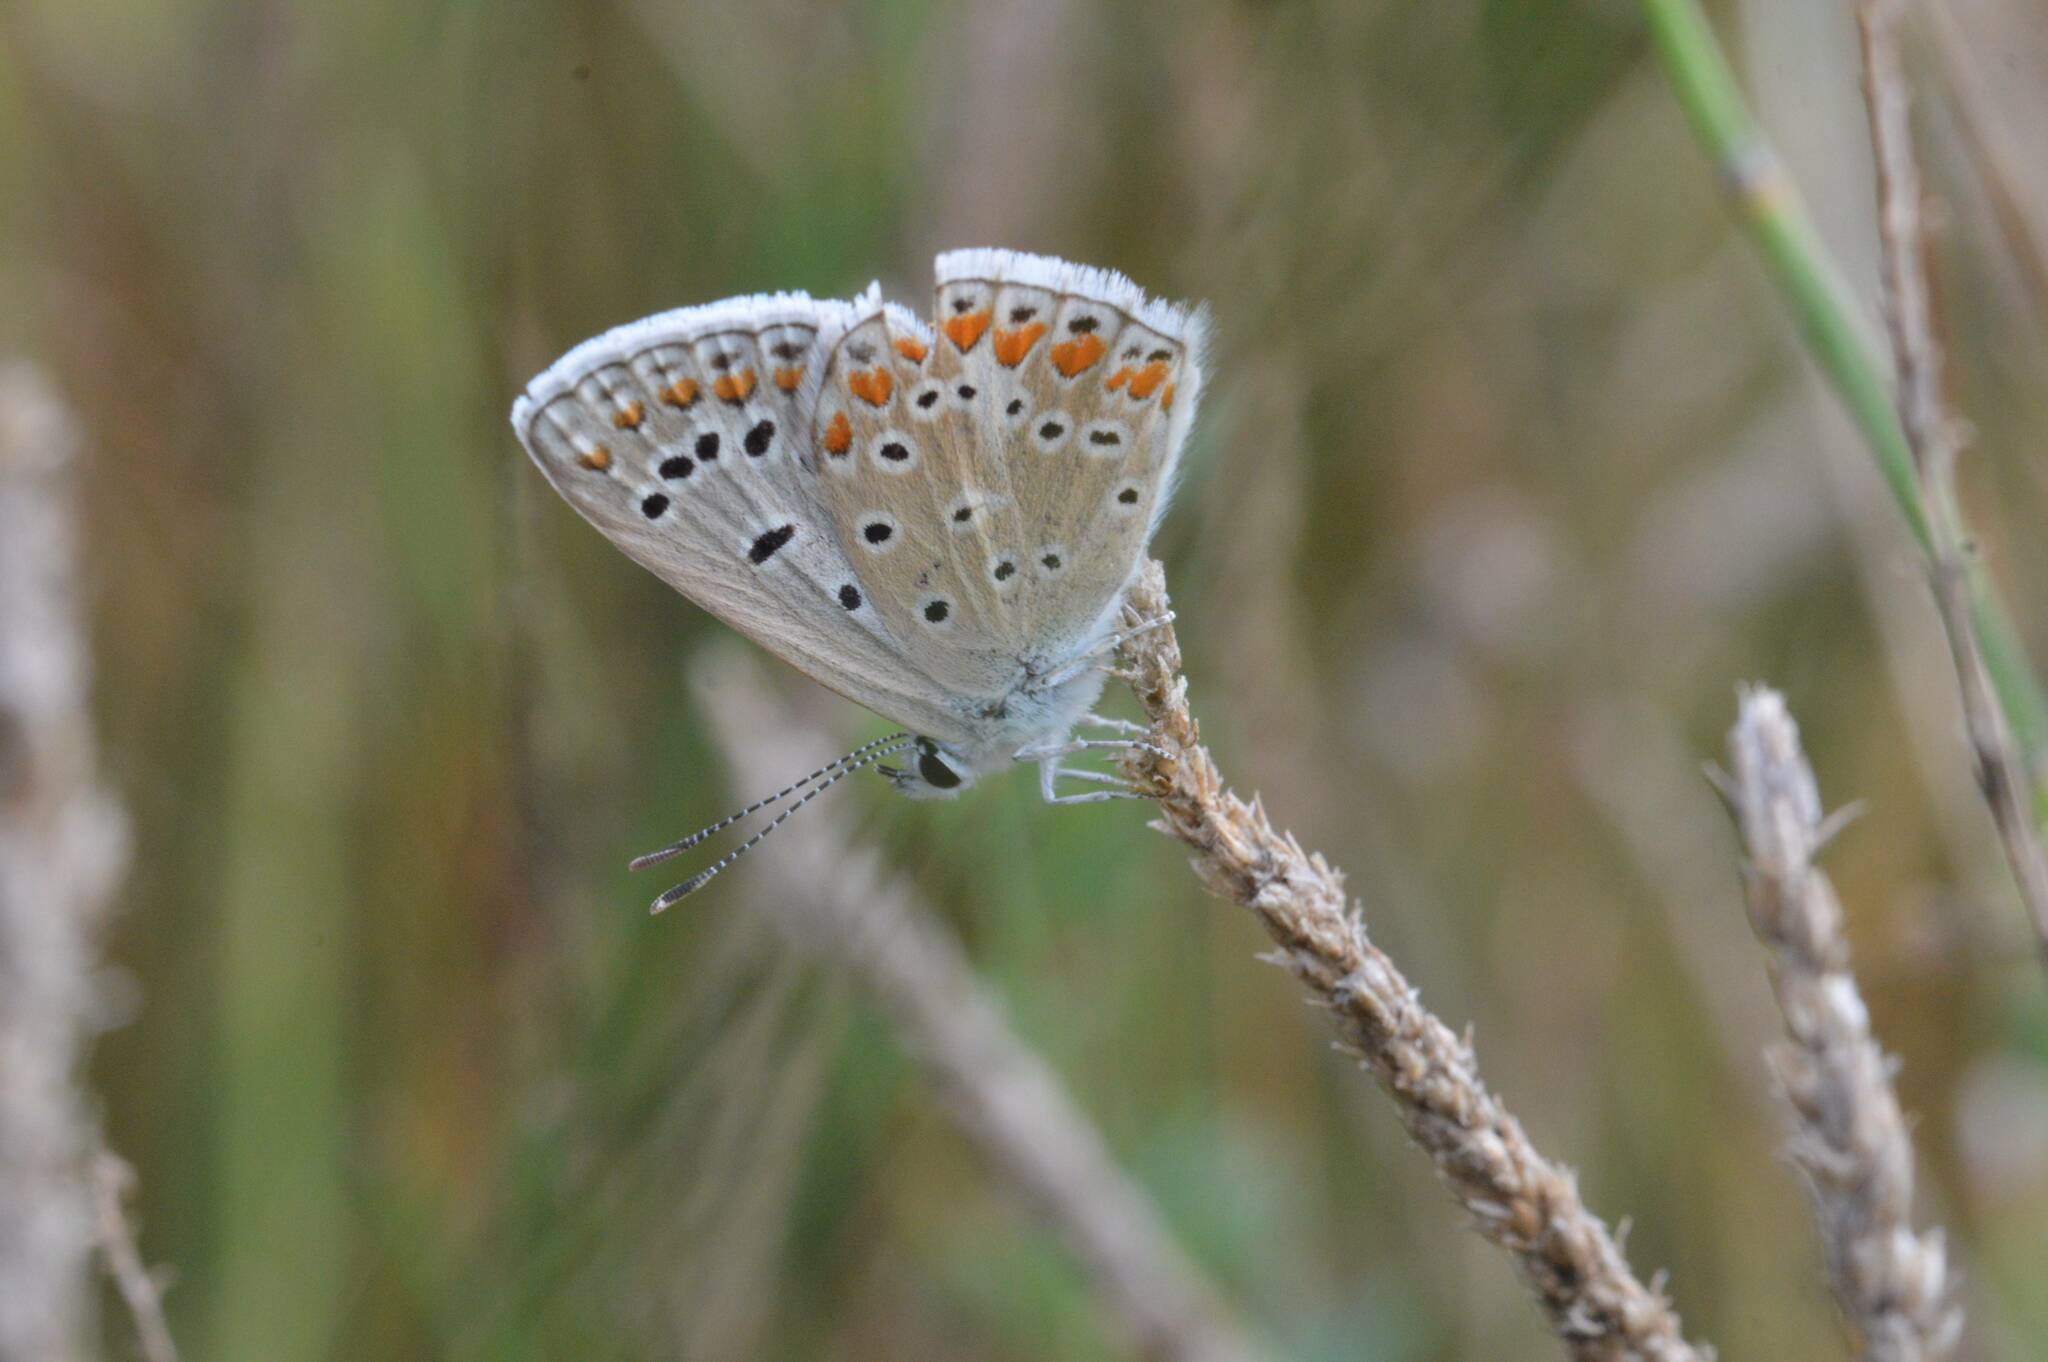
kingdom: Animalia
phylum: Arthropoda
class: Insecta
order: Lepidoptera
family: Lycaenidae
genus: Polyommatus
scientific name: Polyommatus celina
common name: Austaut's blue
